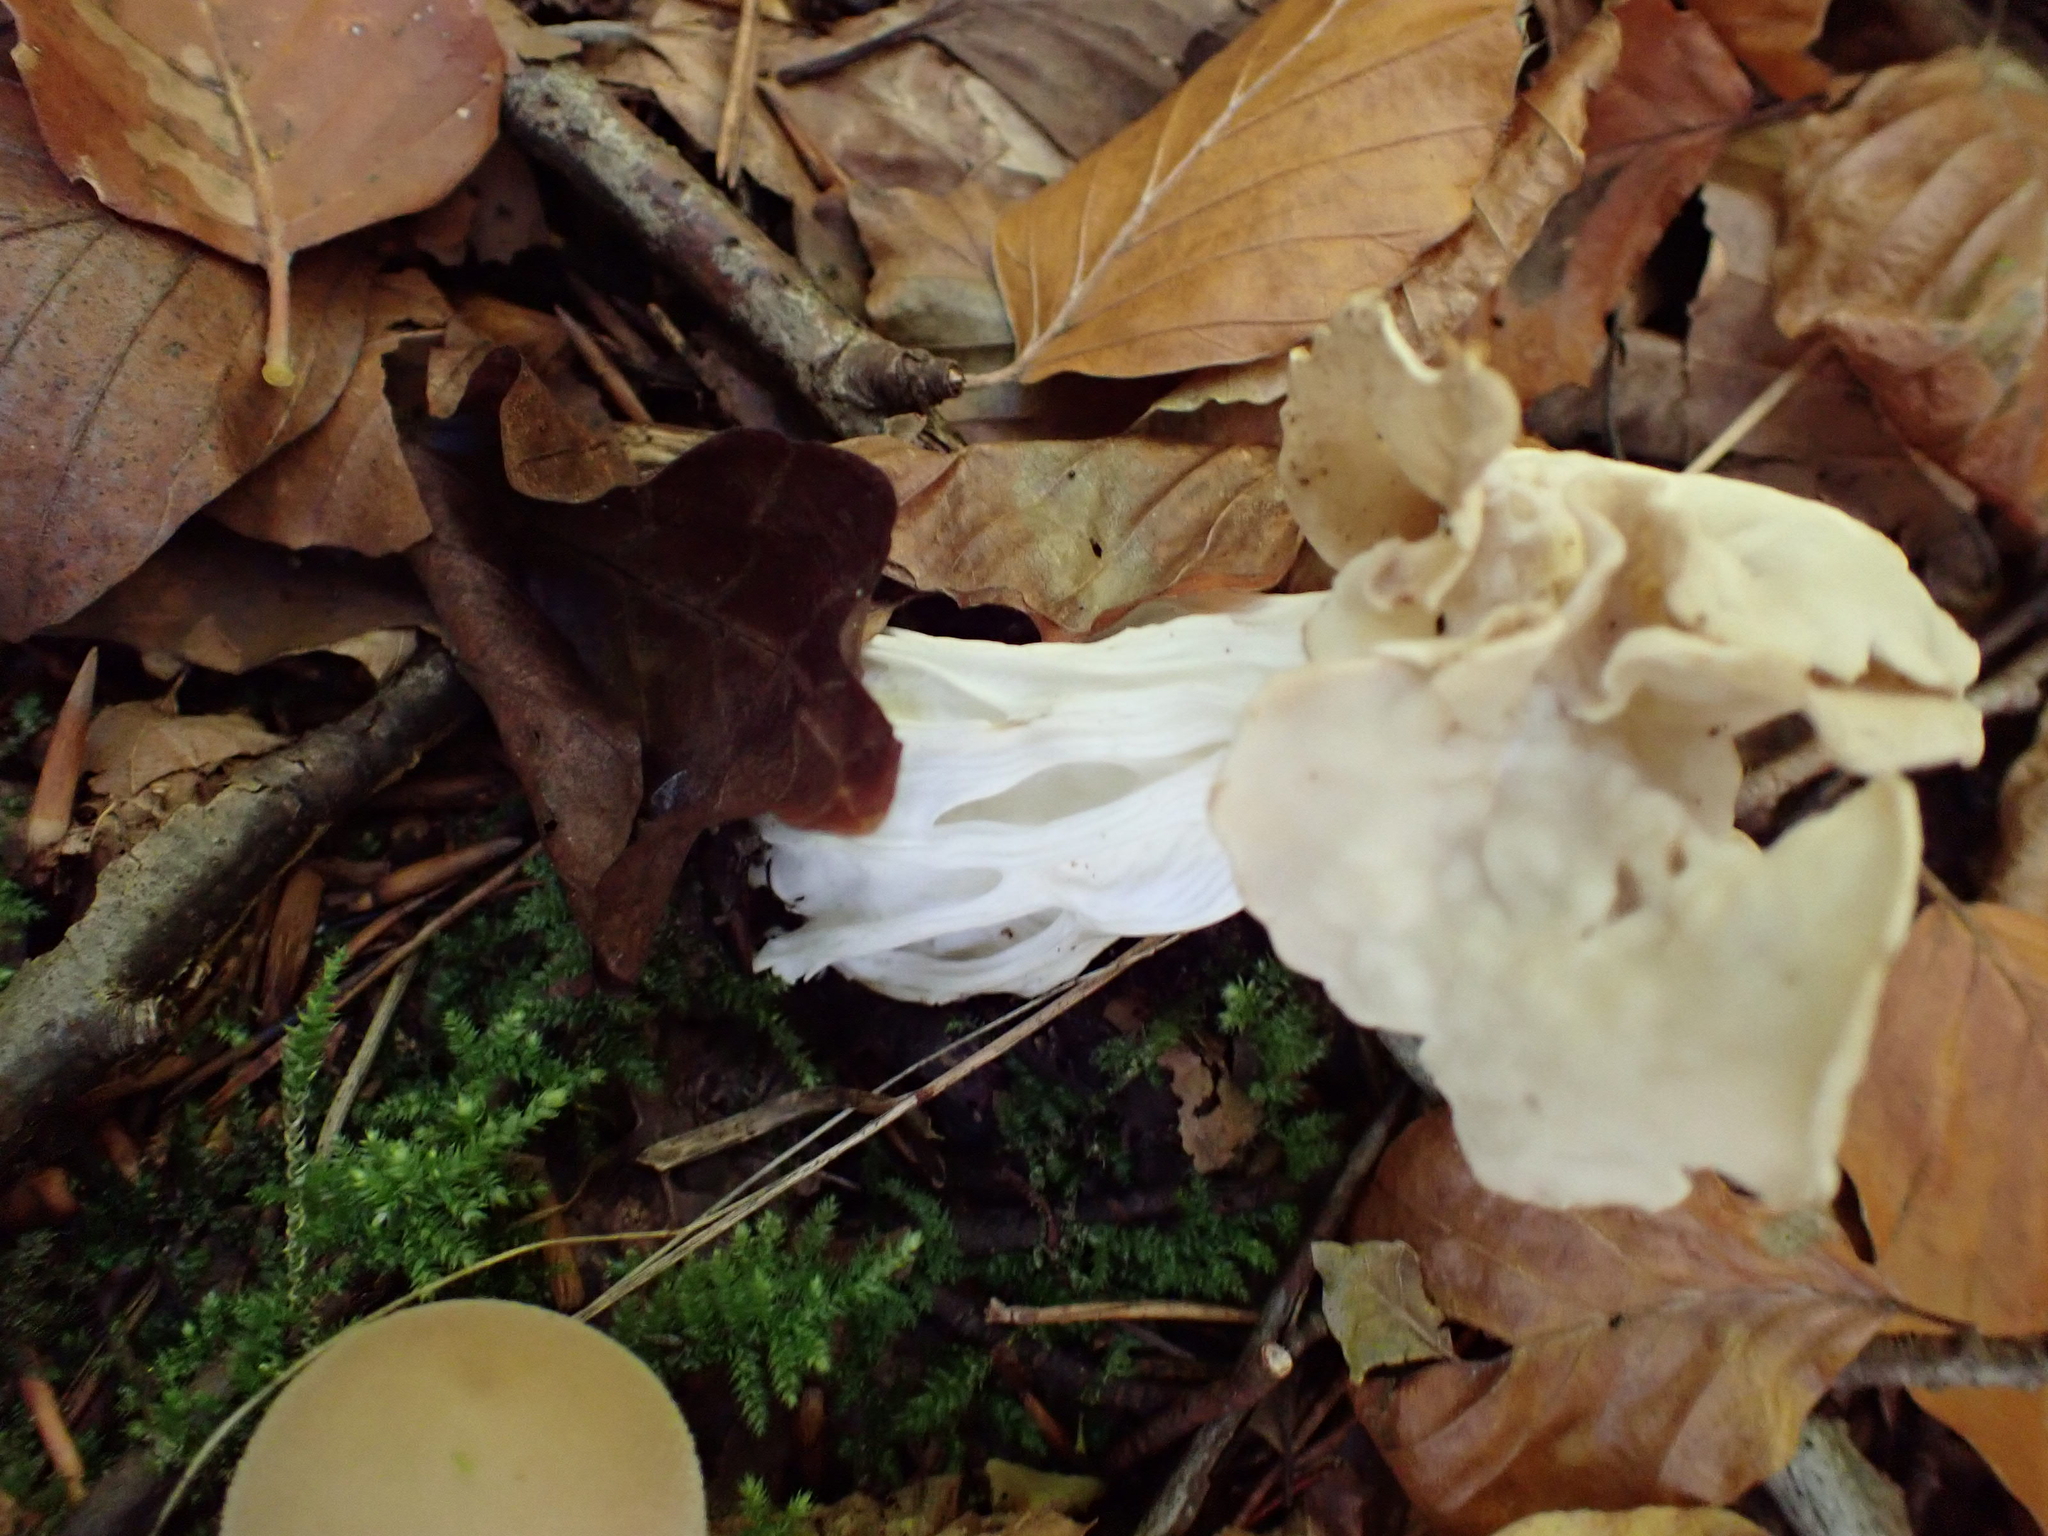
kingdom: Fungi
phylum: Ascomycota
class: Pezizomycetes
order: Pezizales
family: Helvellaceae
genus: Helvella
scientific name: Helvella crispa
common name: White saddle
